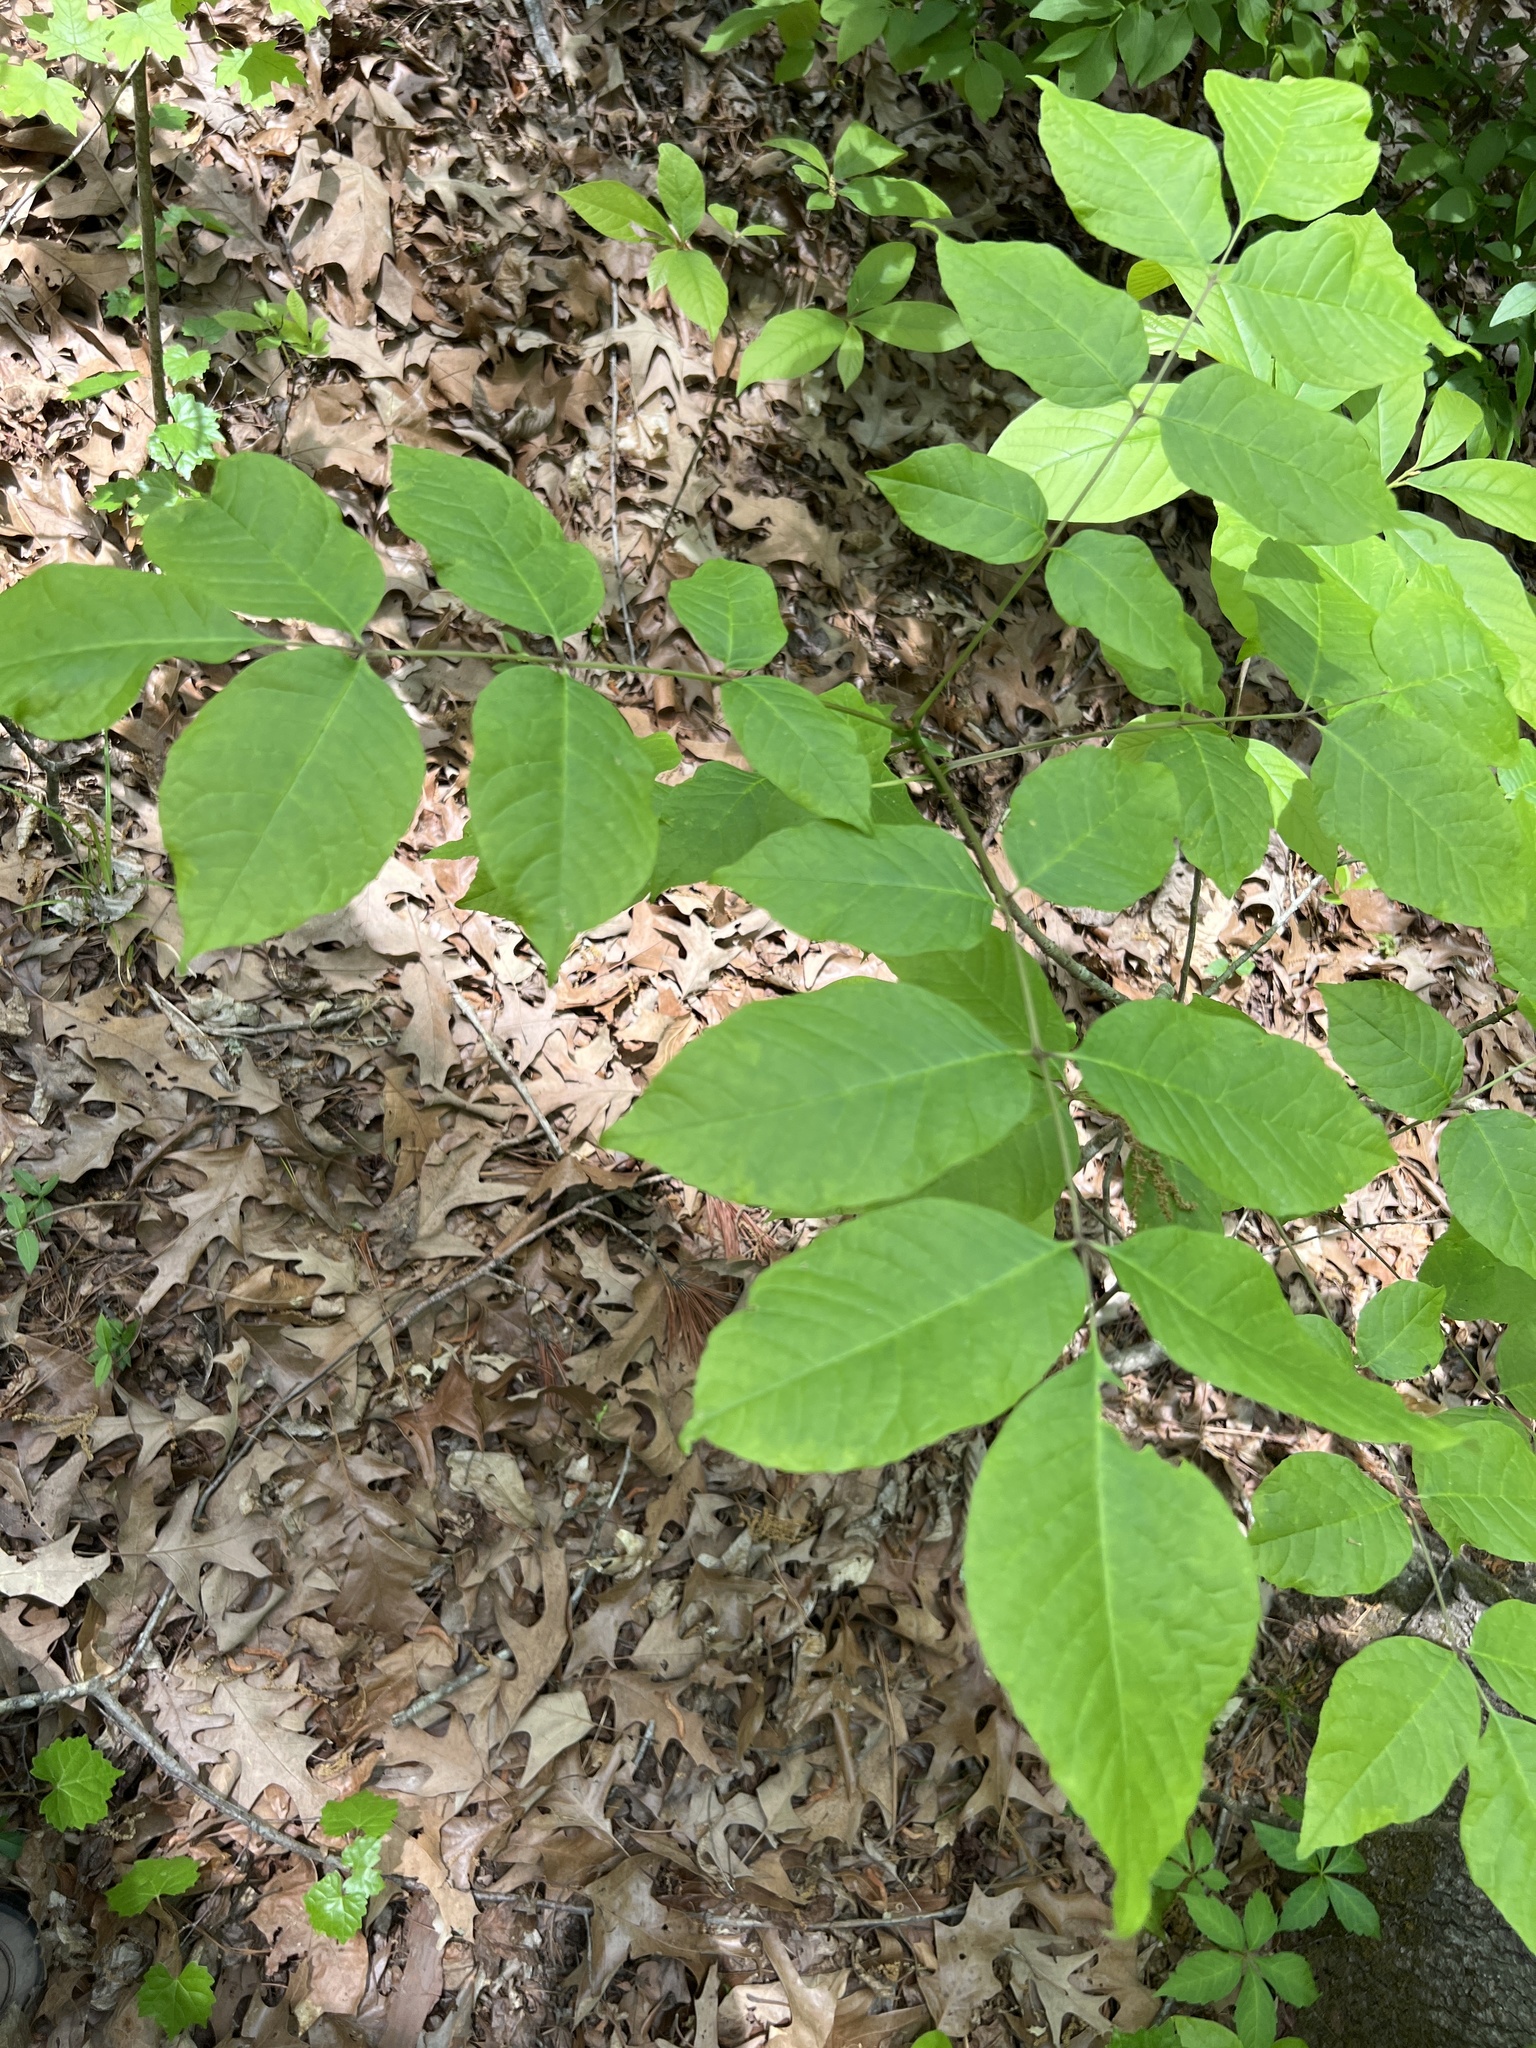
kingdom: Plantae
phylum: Tracheophyta
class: Magnoliopsida
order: Lamiales
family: Oleaceae
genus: Fraxinus
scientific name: Fraxinus americana
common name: White ash
